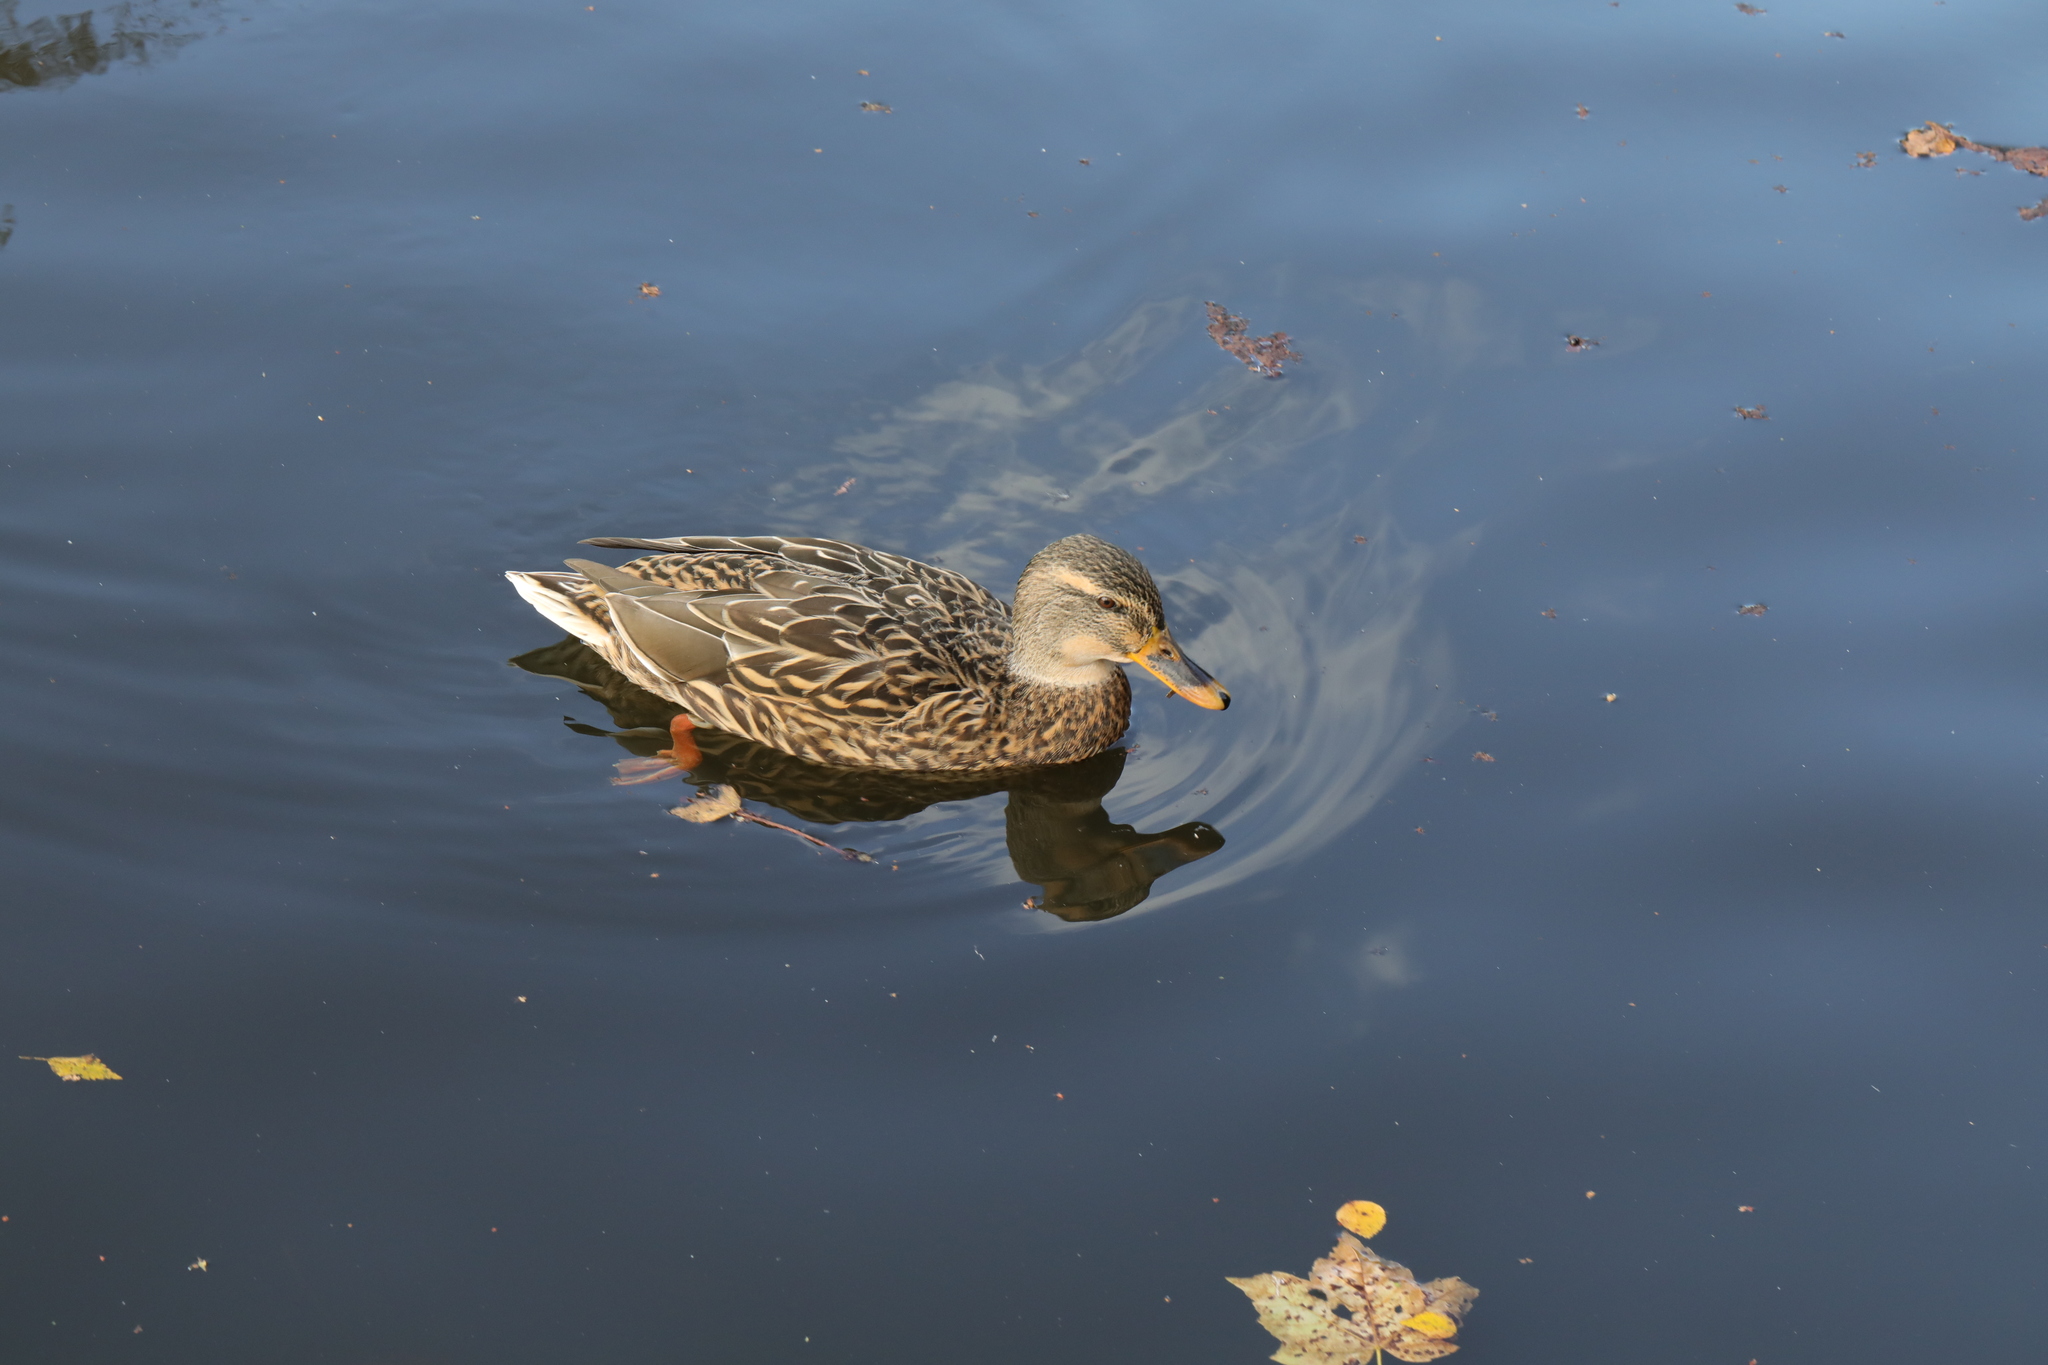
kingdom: Animalia
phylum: Chordata
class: Aves
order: Anseriformes
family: Anatidae
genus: Anas
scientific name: Anas platyrhynchos
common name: Mallard
